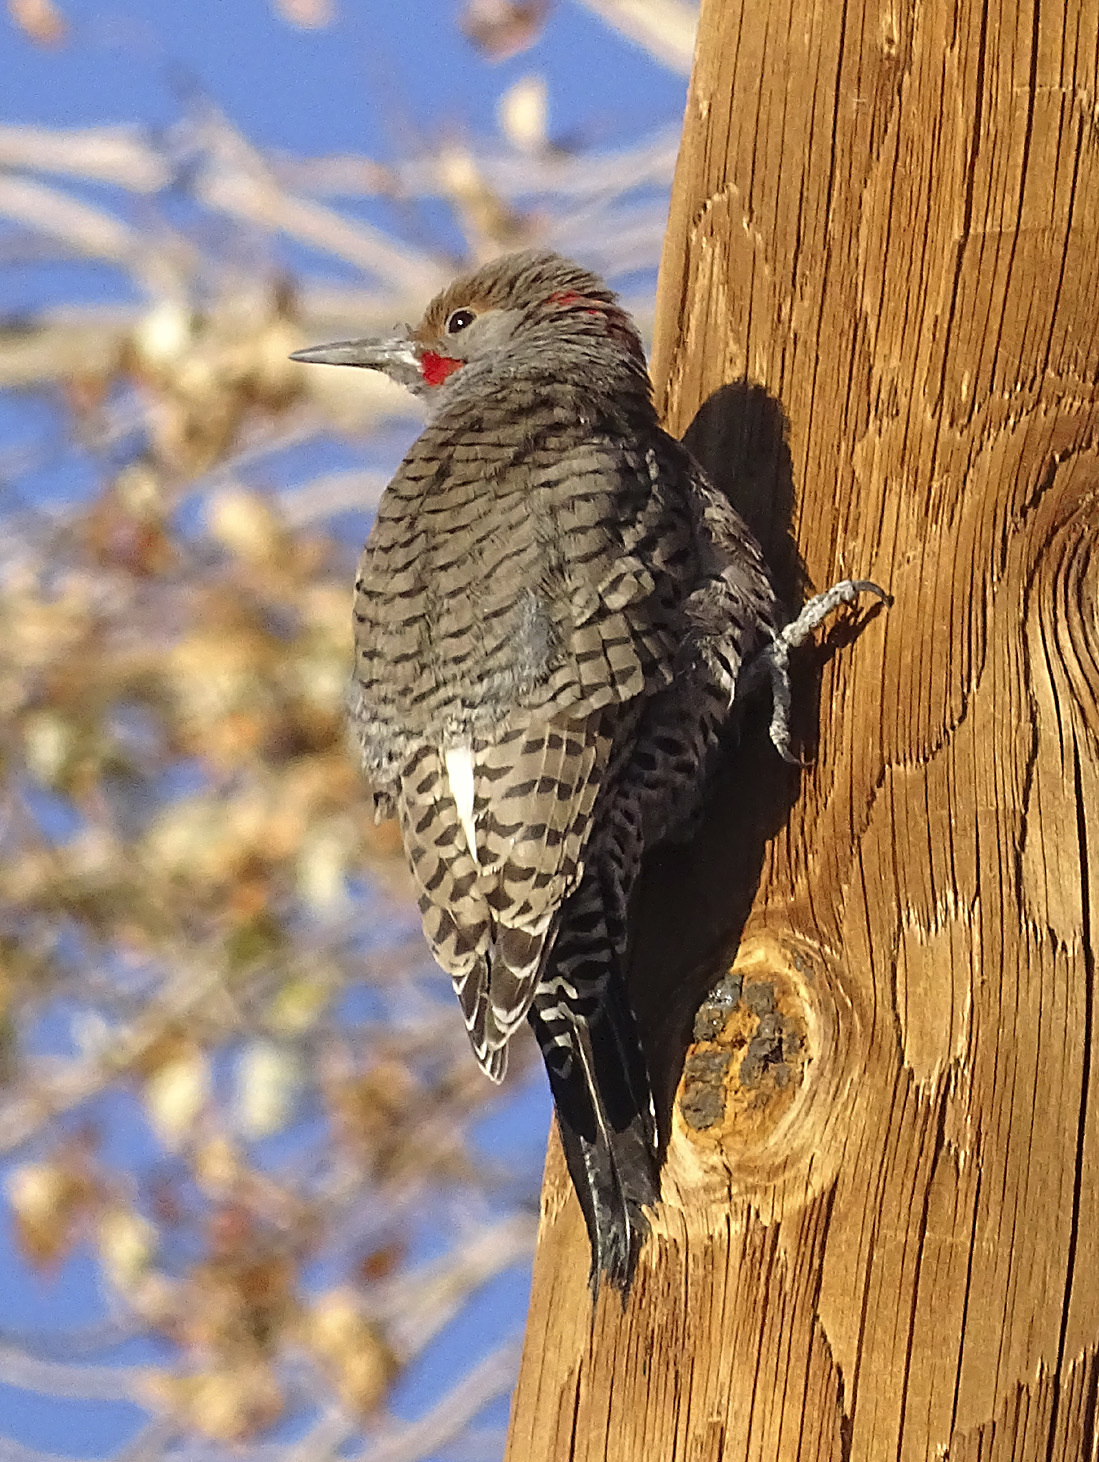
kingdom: Animalia
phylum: Chordata
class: Aves
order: Piciformes
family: Picidae
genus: Colaptes
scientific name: Colaptes
